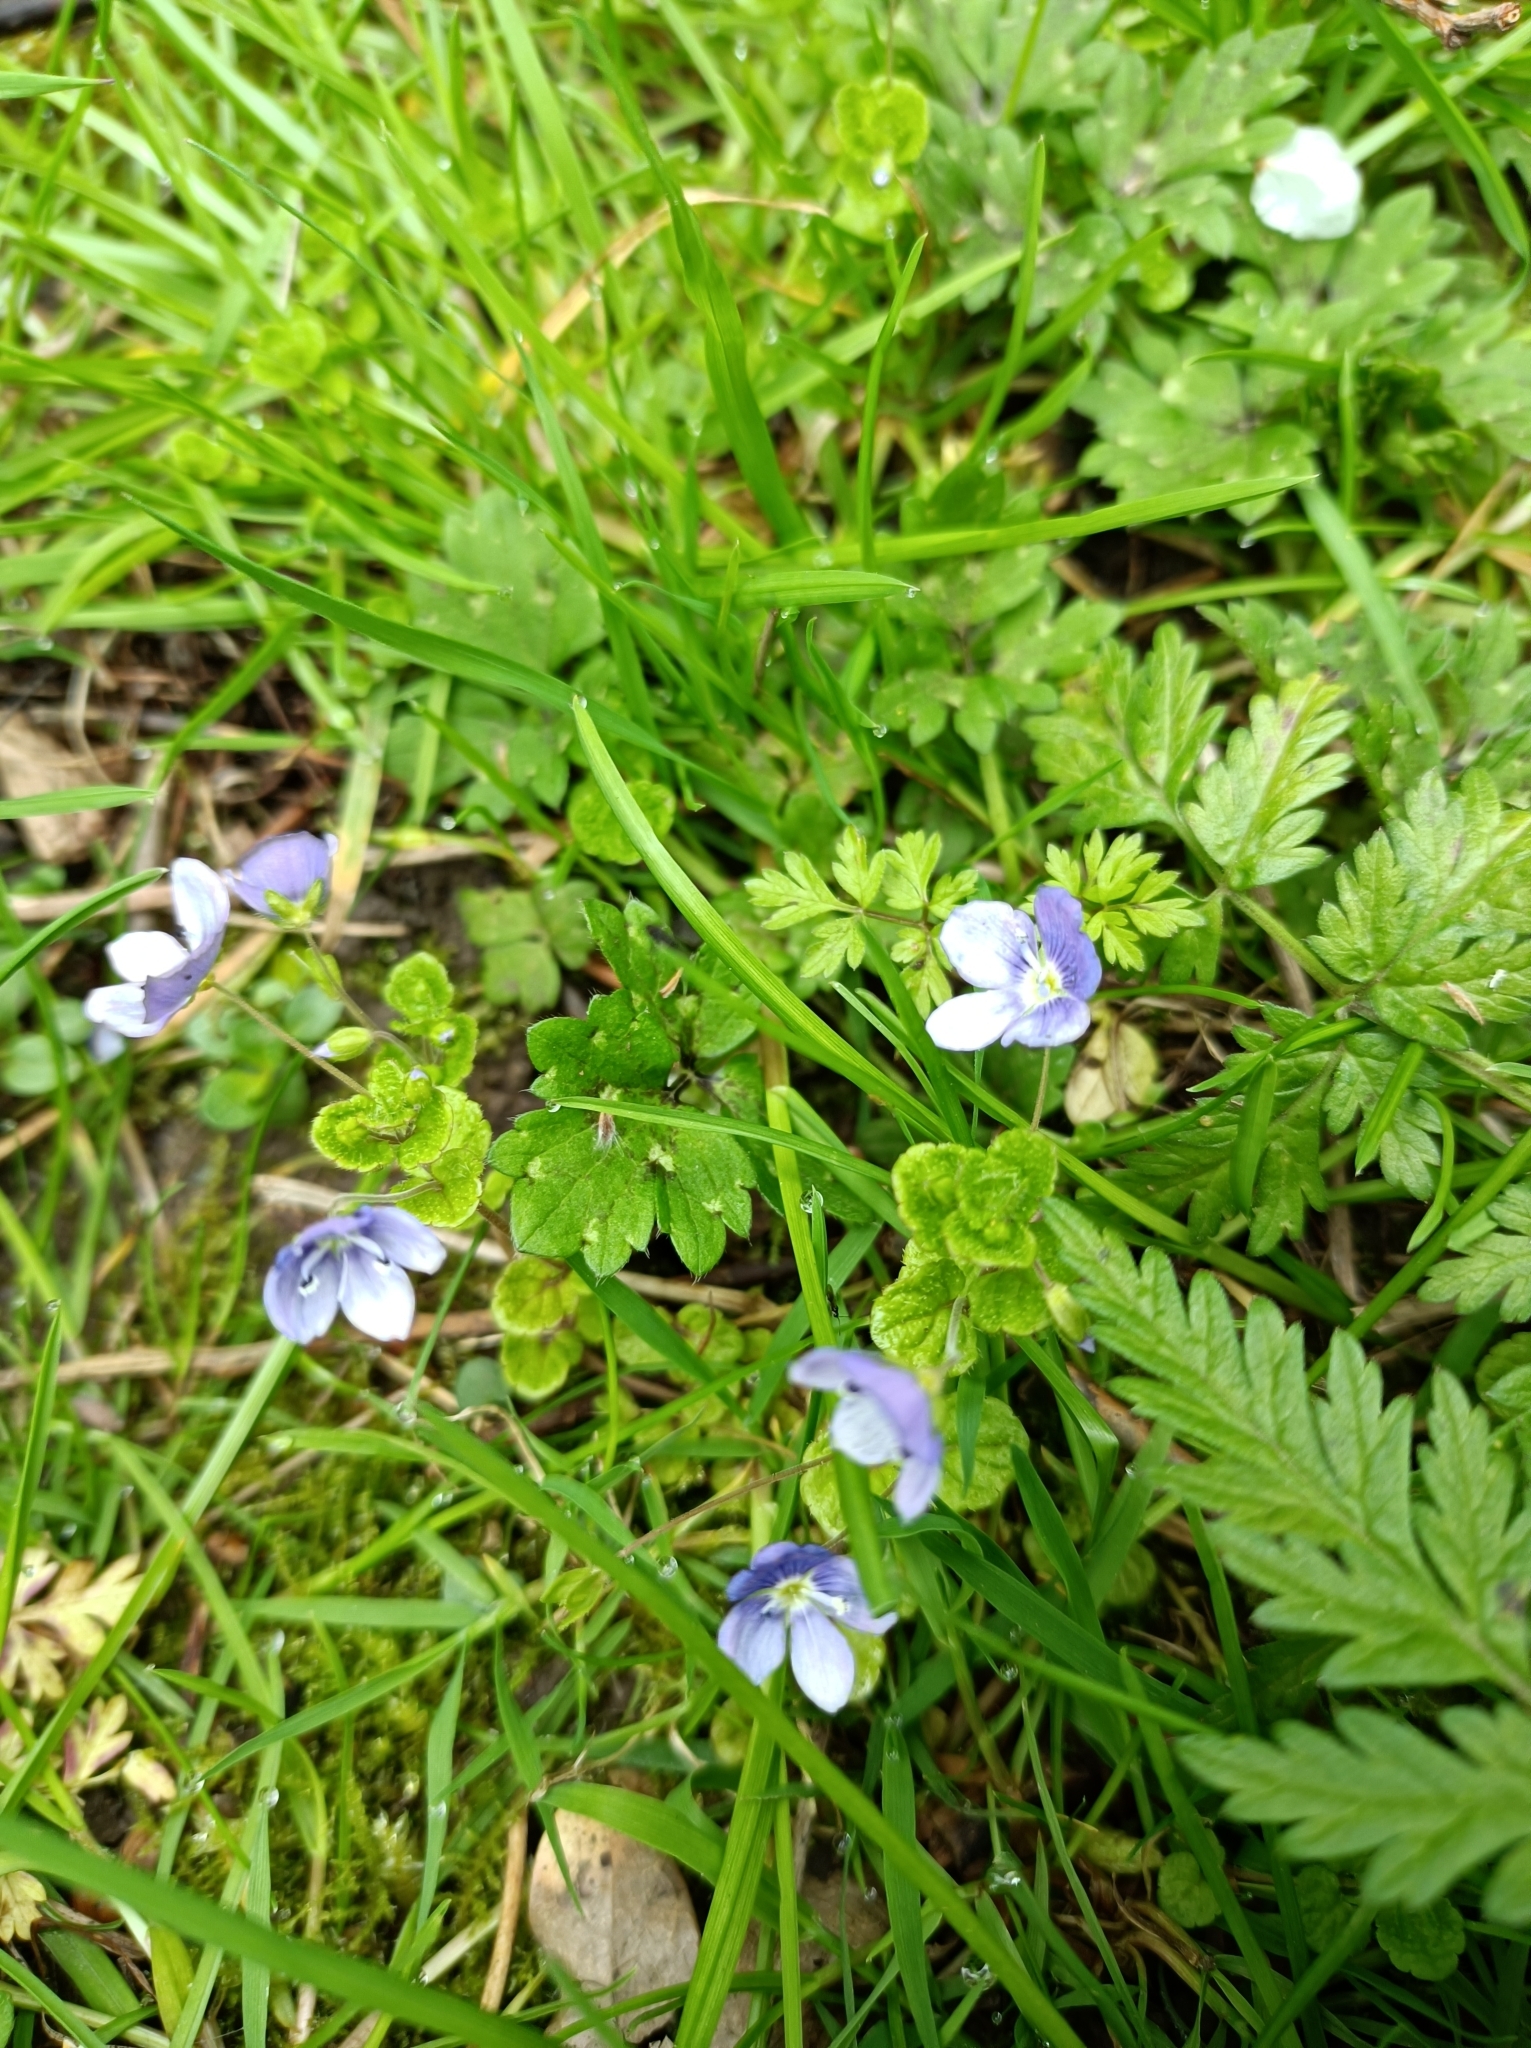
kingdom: Plantae
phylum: Tracheophyta
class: Magnoliopsida
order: Lamiales
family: Plantaginaceae
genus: Veronica
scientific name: Veronica filiformis
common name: Slender speedwell
